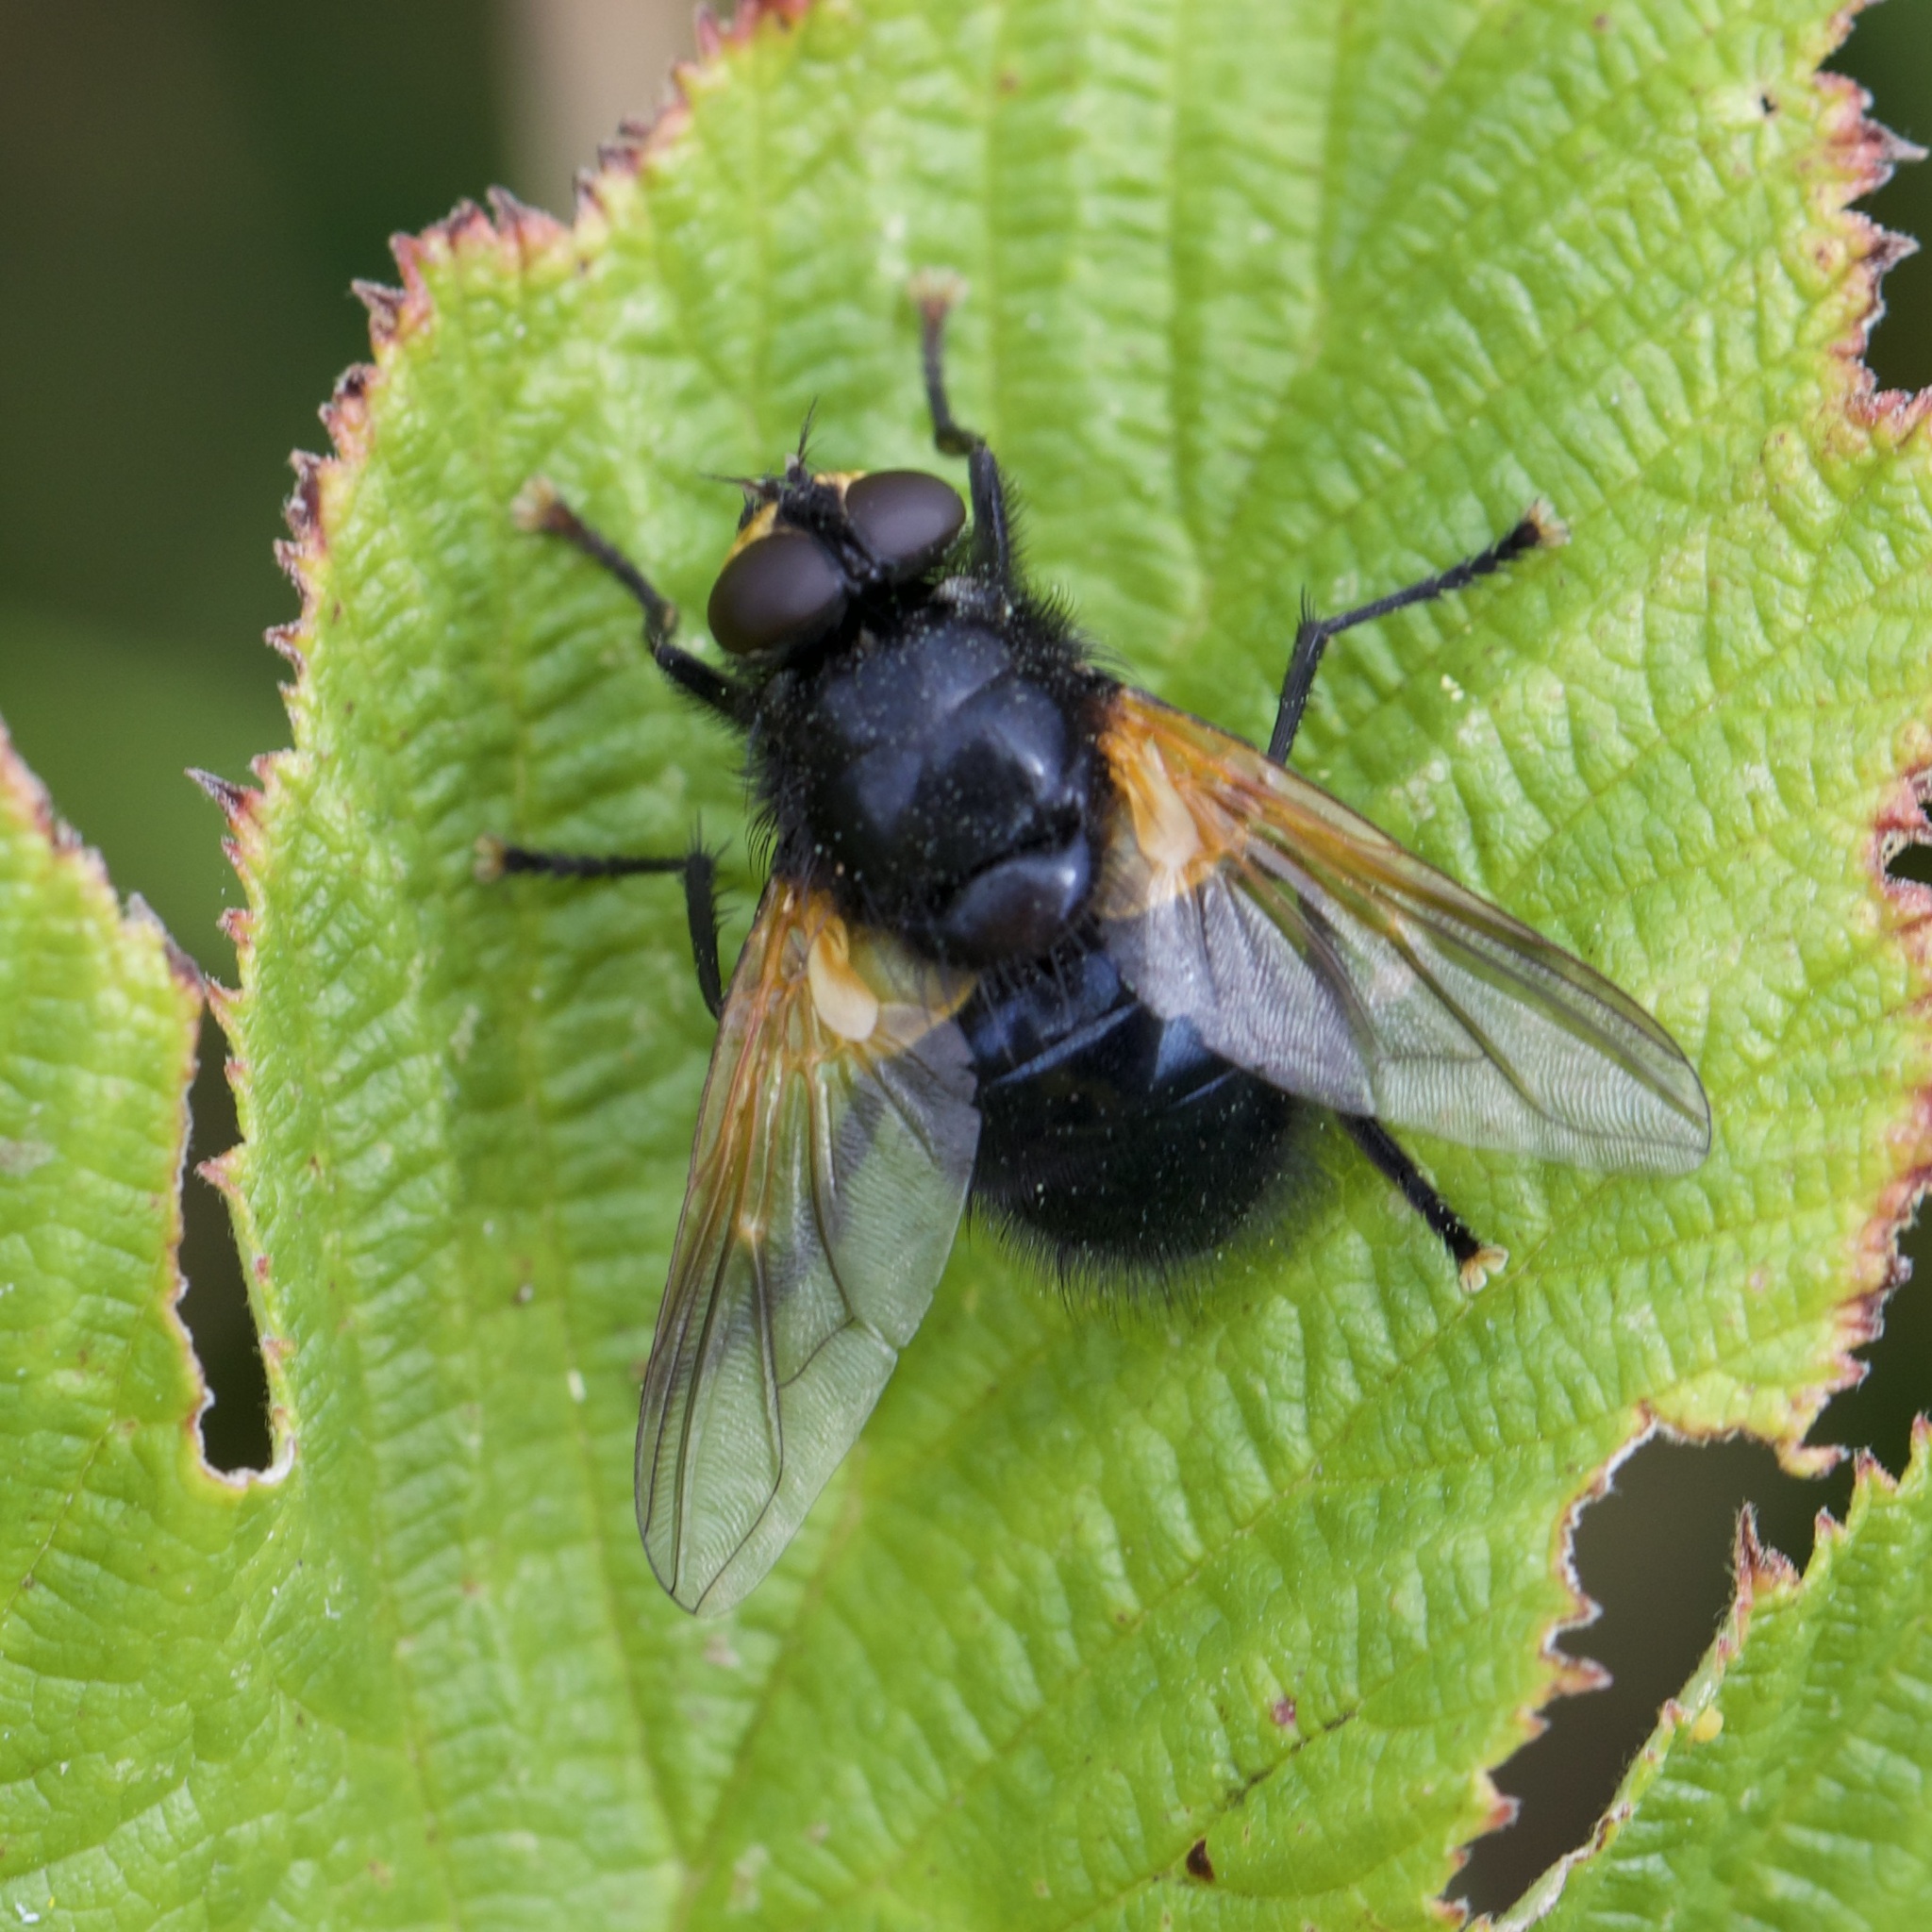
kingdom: Animalia
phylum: Arthropoda
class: Insecta
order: Diptera
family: Muscidae
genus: Mesembrina
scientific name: Mesembrina meridiana
